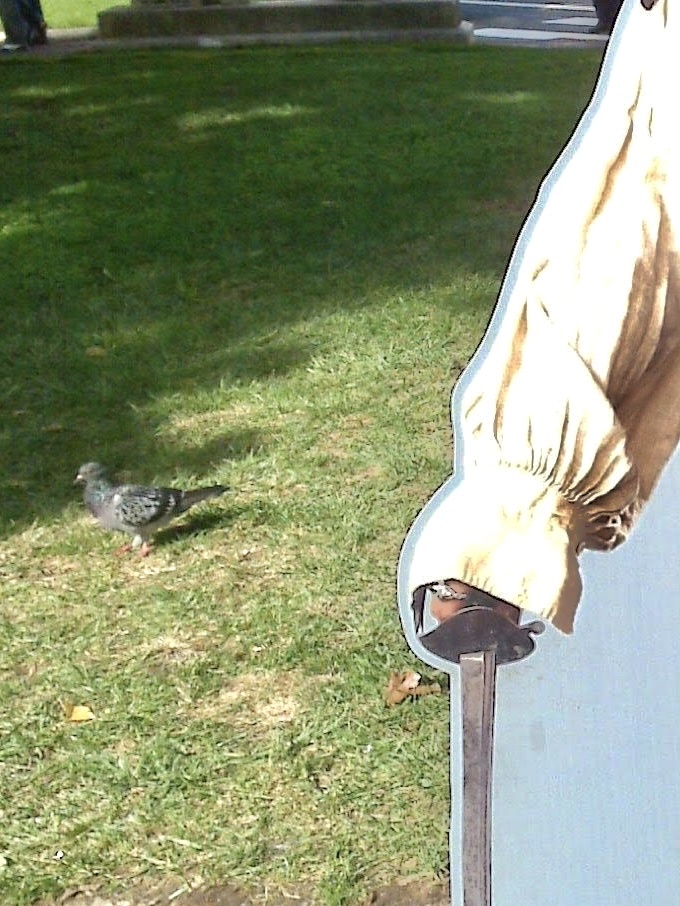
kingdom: Animalia
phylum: Chordata
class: Aves
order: Columbiformes
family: Columbidae
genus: Columba
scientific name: Columba livia
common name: Rock pigeon
